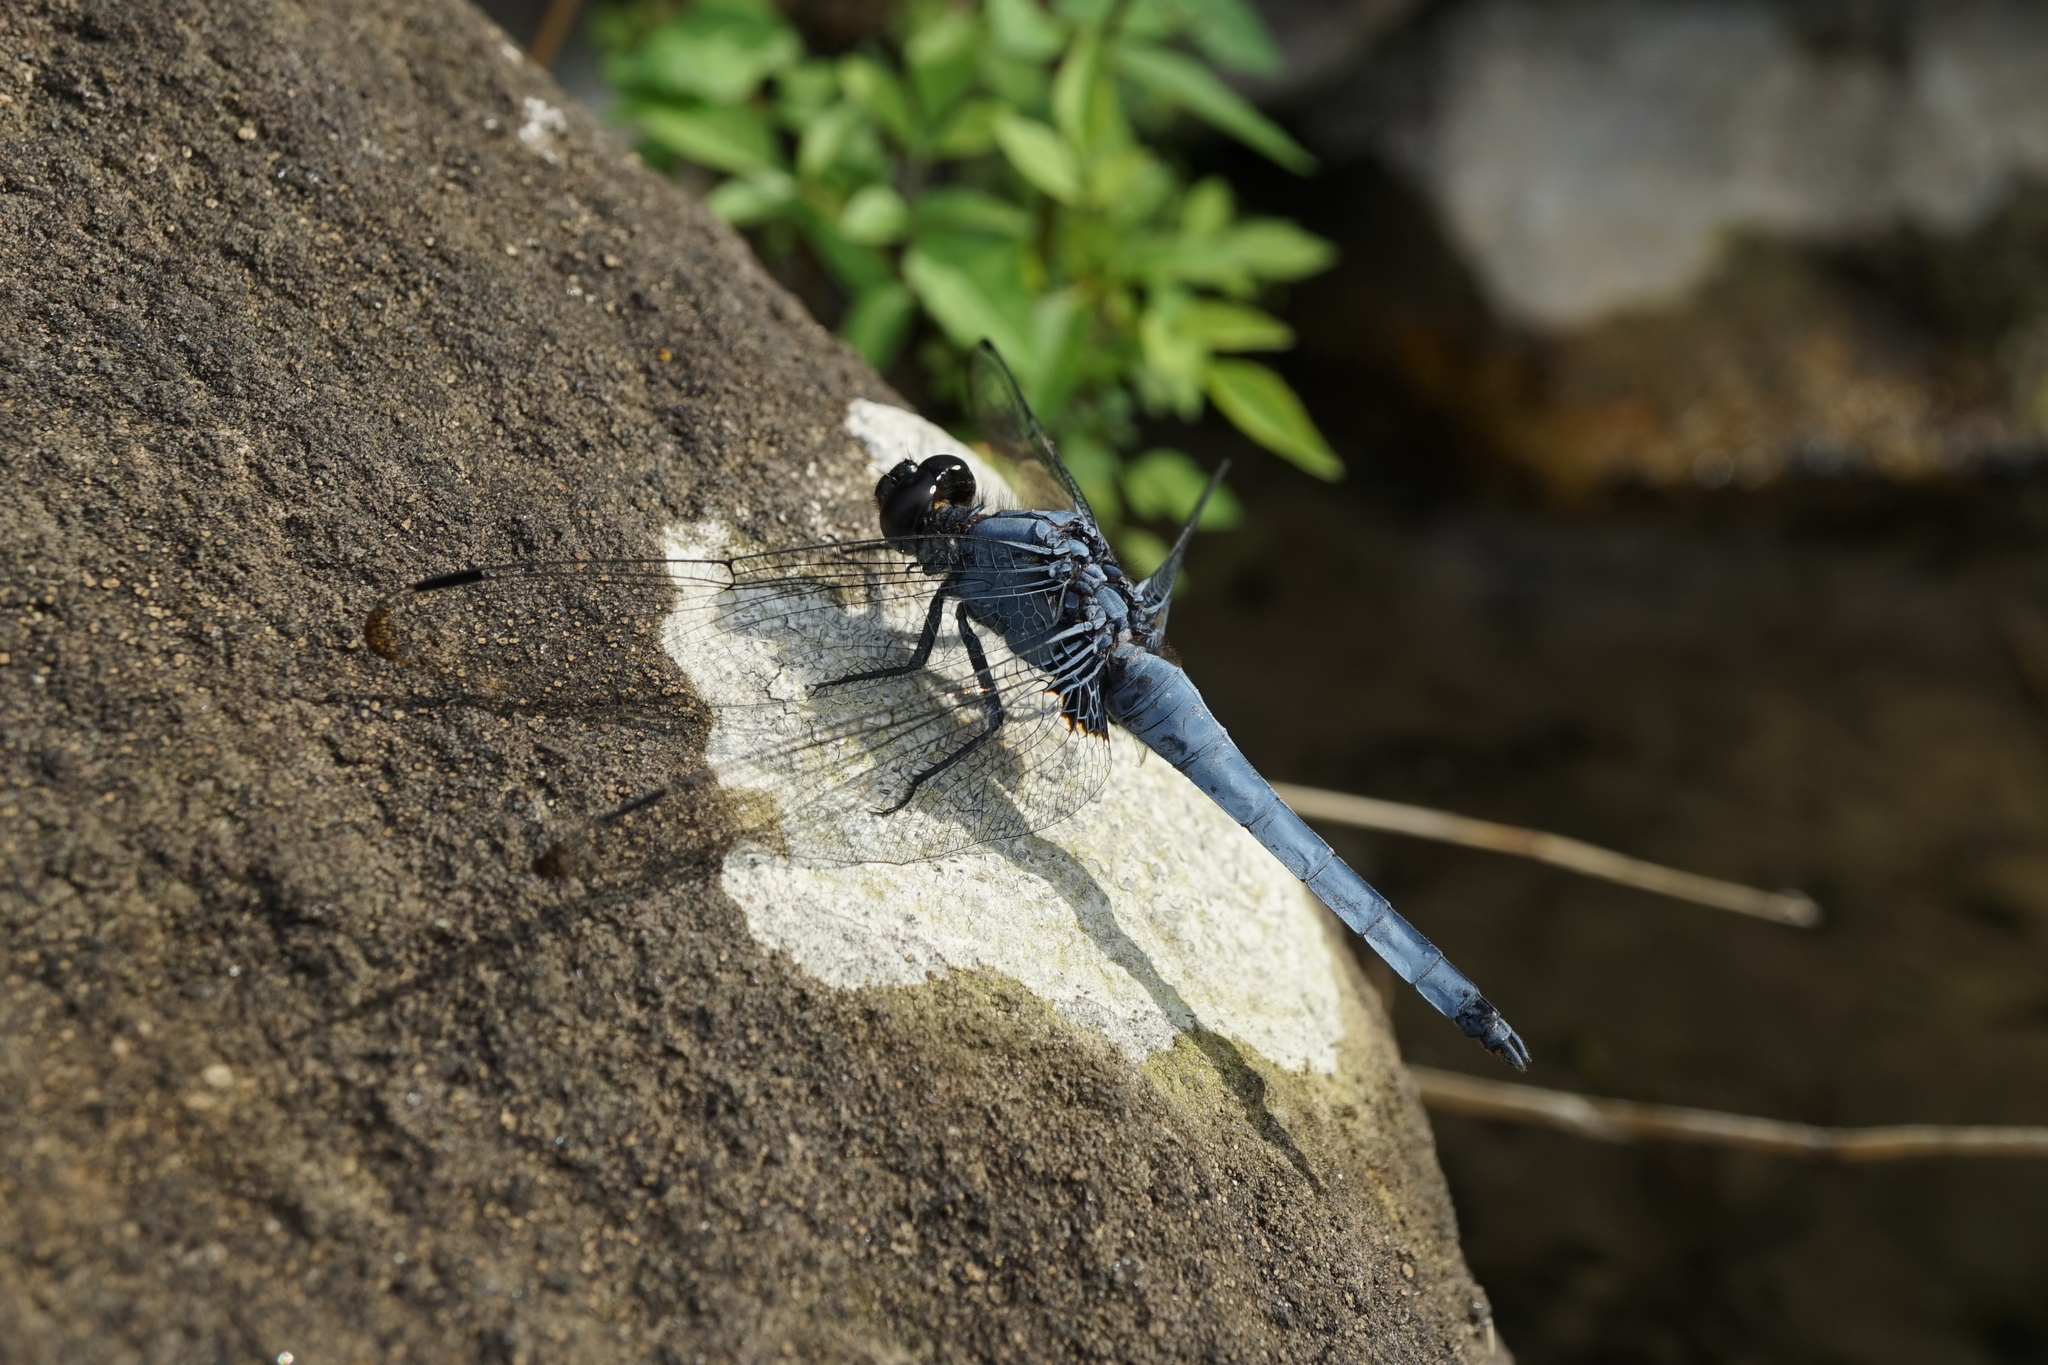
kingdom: Animalia
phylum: Arthropoda
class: Insecta
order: Odonata
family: Libellulidae
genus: Orthetrum
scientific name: Orthetrum melania
